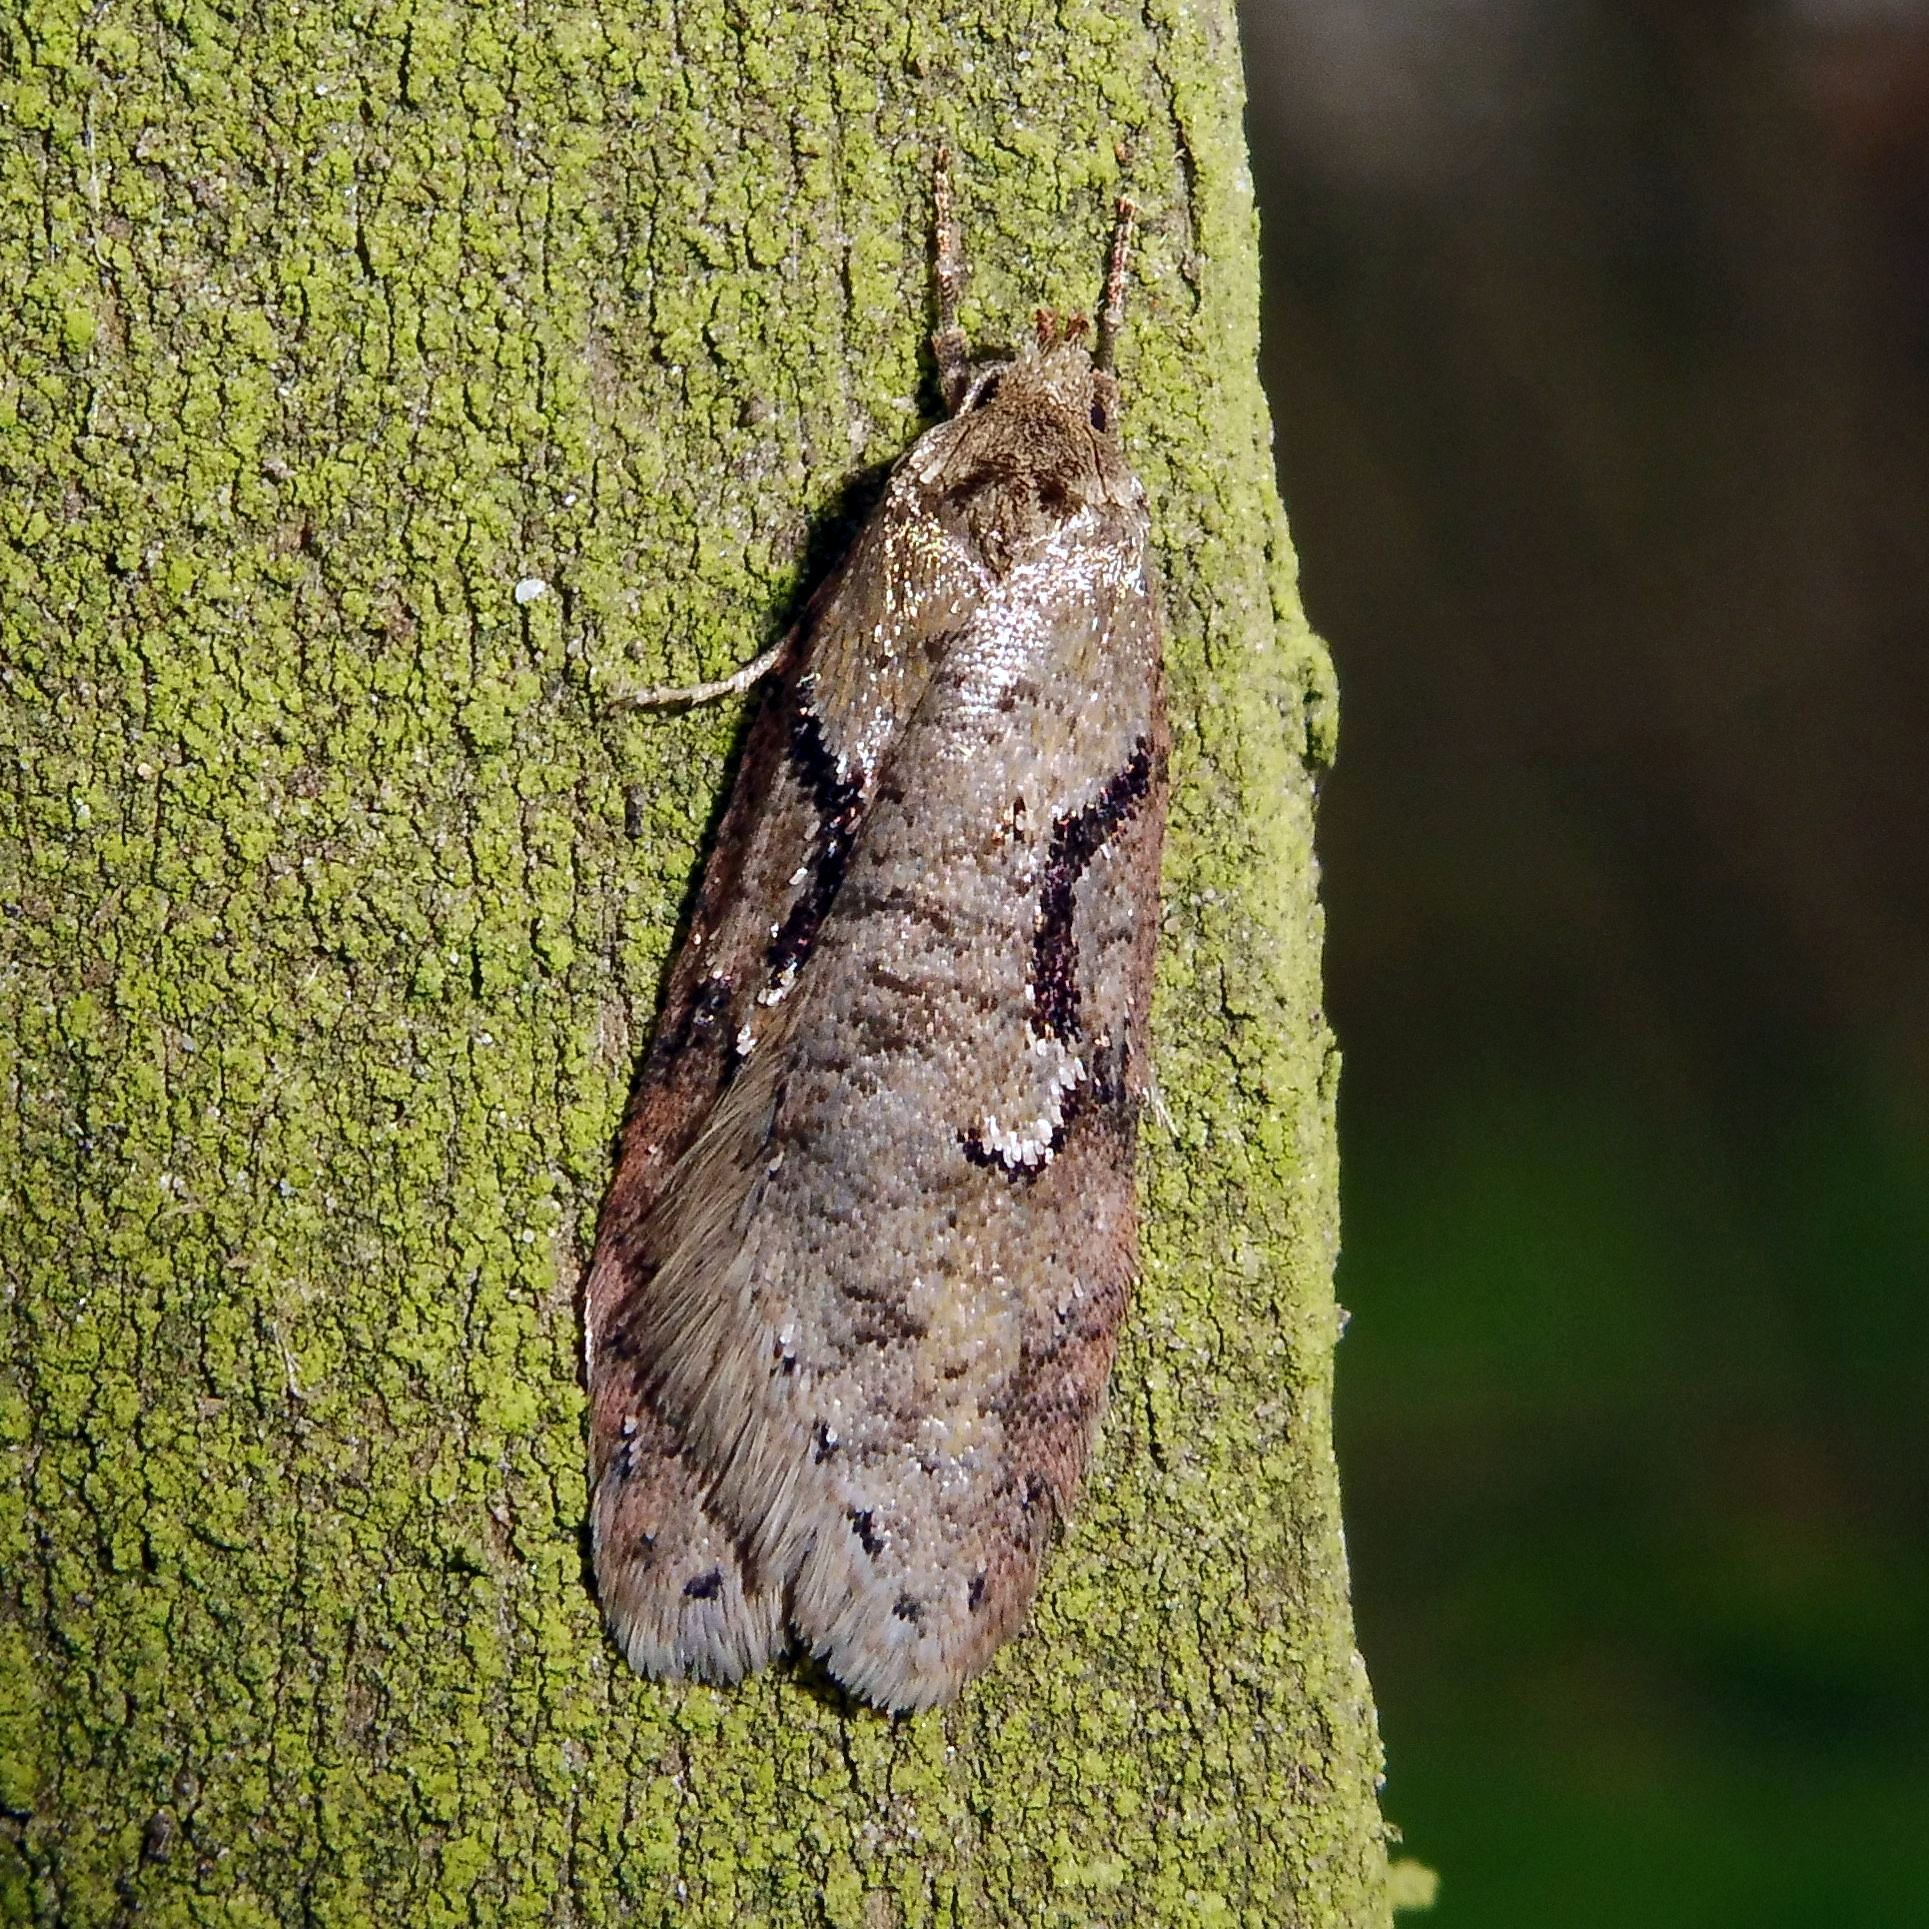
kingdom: Animalia
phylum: Arthropoda
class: Insecta
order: Lepidoptera
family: Depressariidae
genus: Semioscopis
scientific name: Semioscopis steinkellneriana
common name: Dawn flat-body
